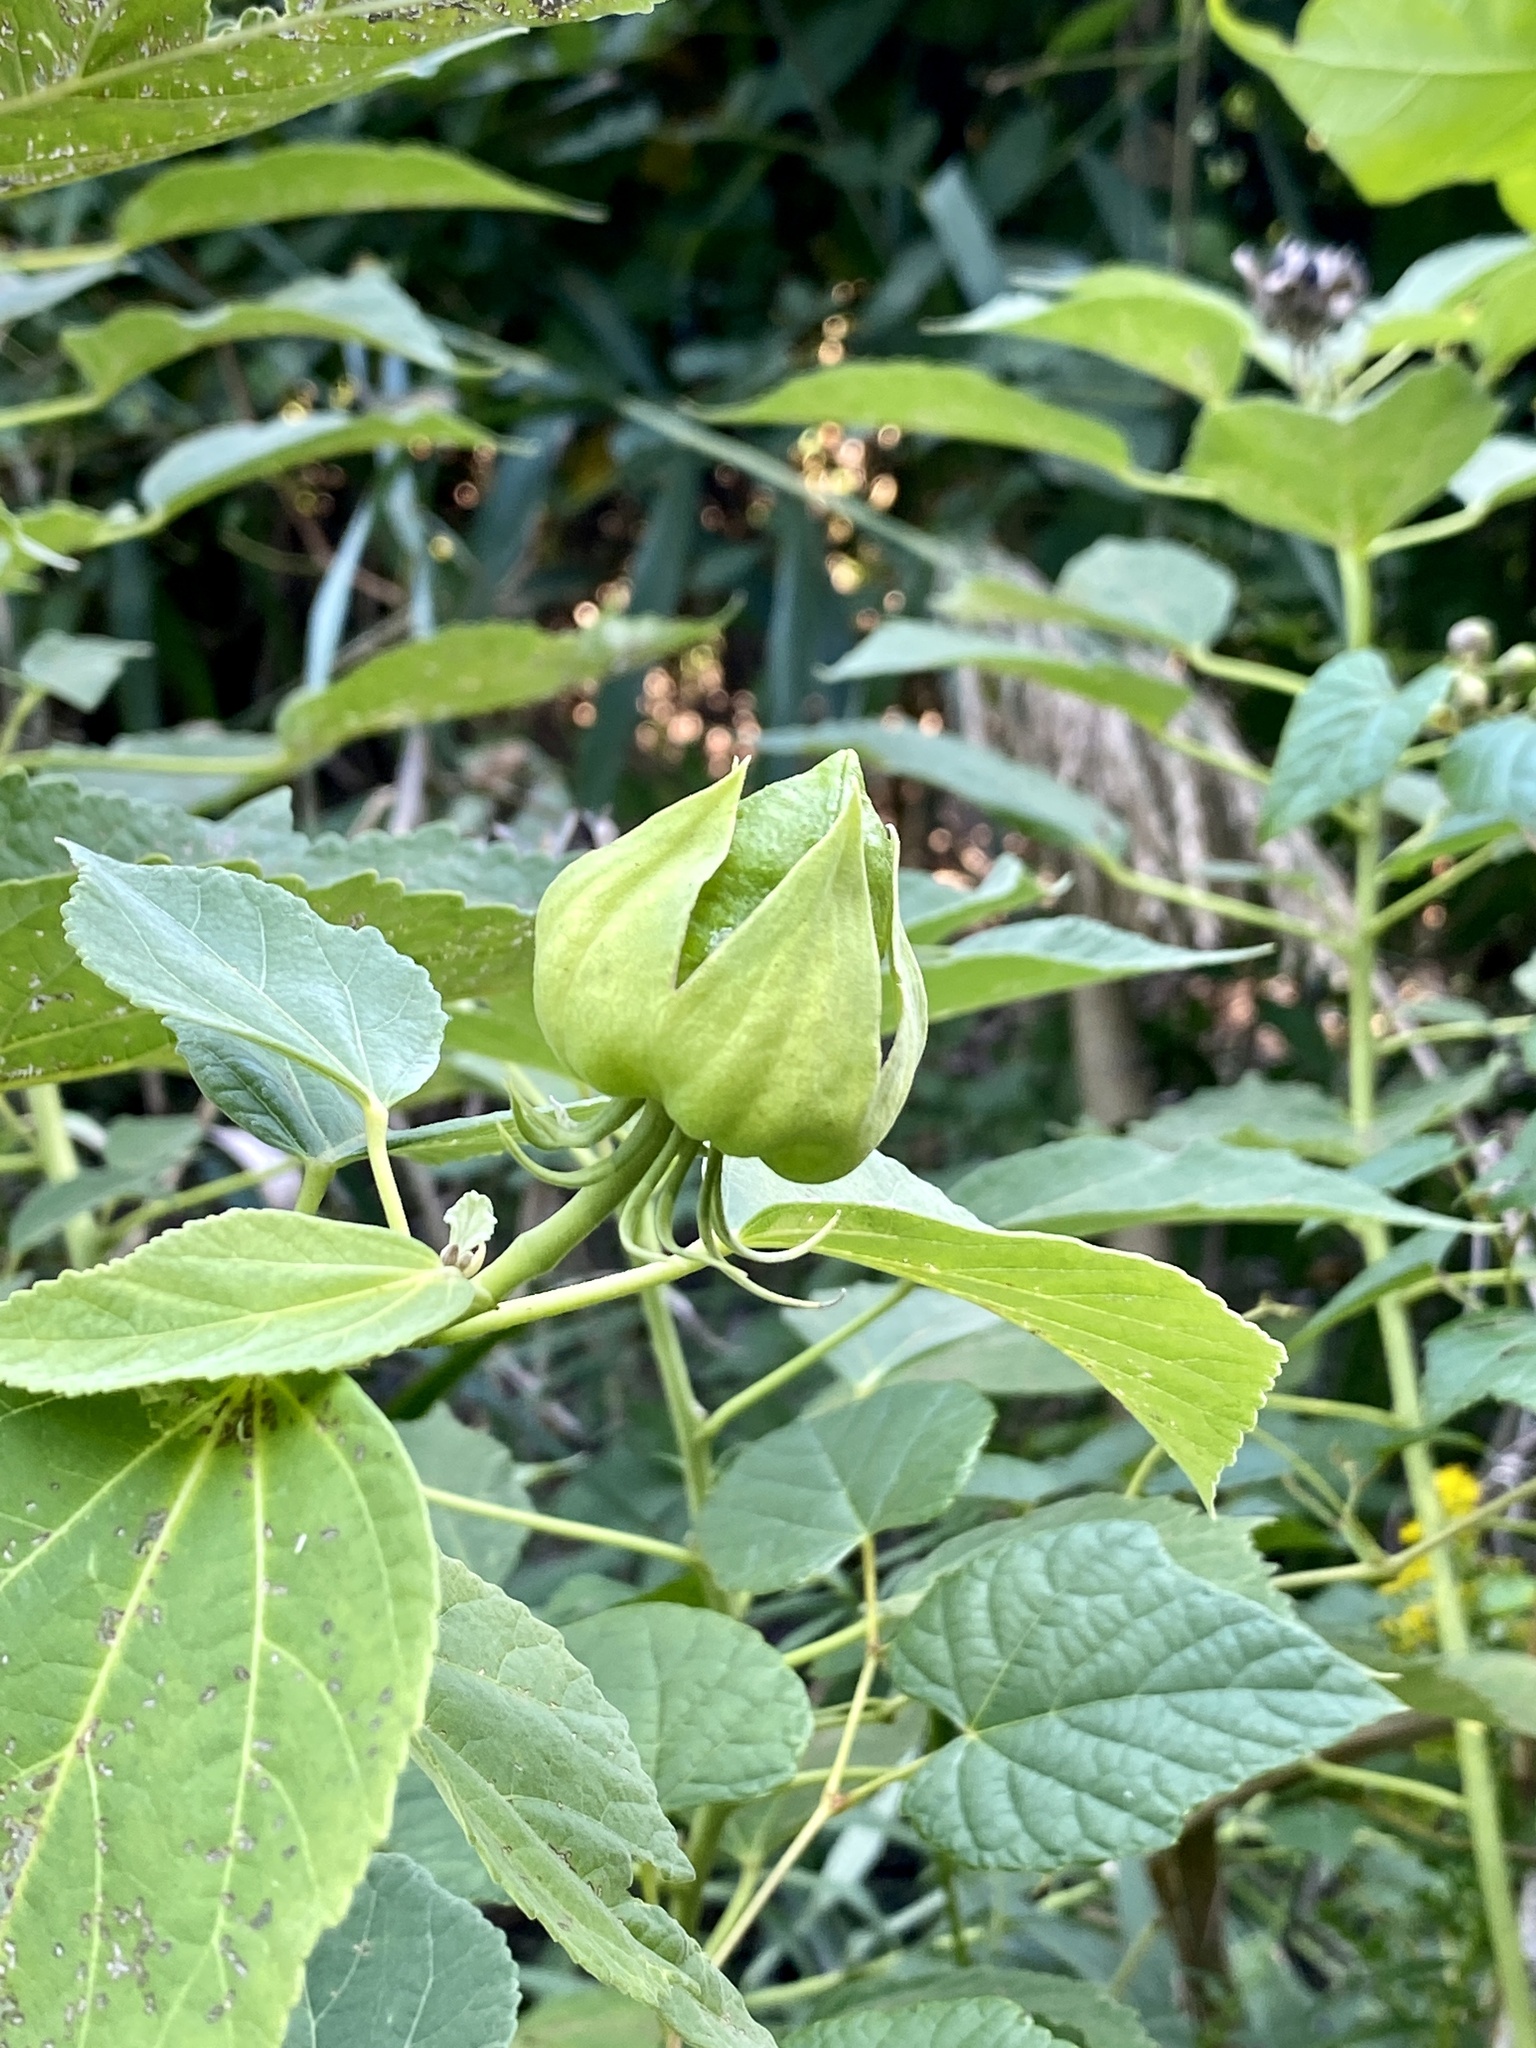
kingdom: Plantae
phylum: Tracheophyta
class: Magnoliopsida
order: Malvales
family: Malvaceae
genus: Hibiscus
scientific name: Hibiscus moscheutos
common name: Common rose-mallow
